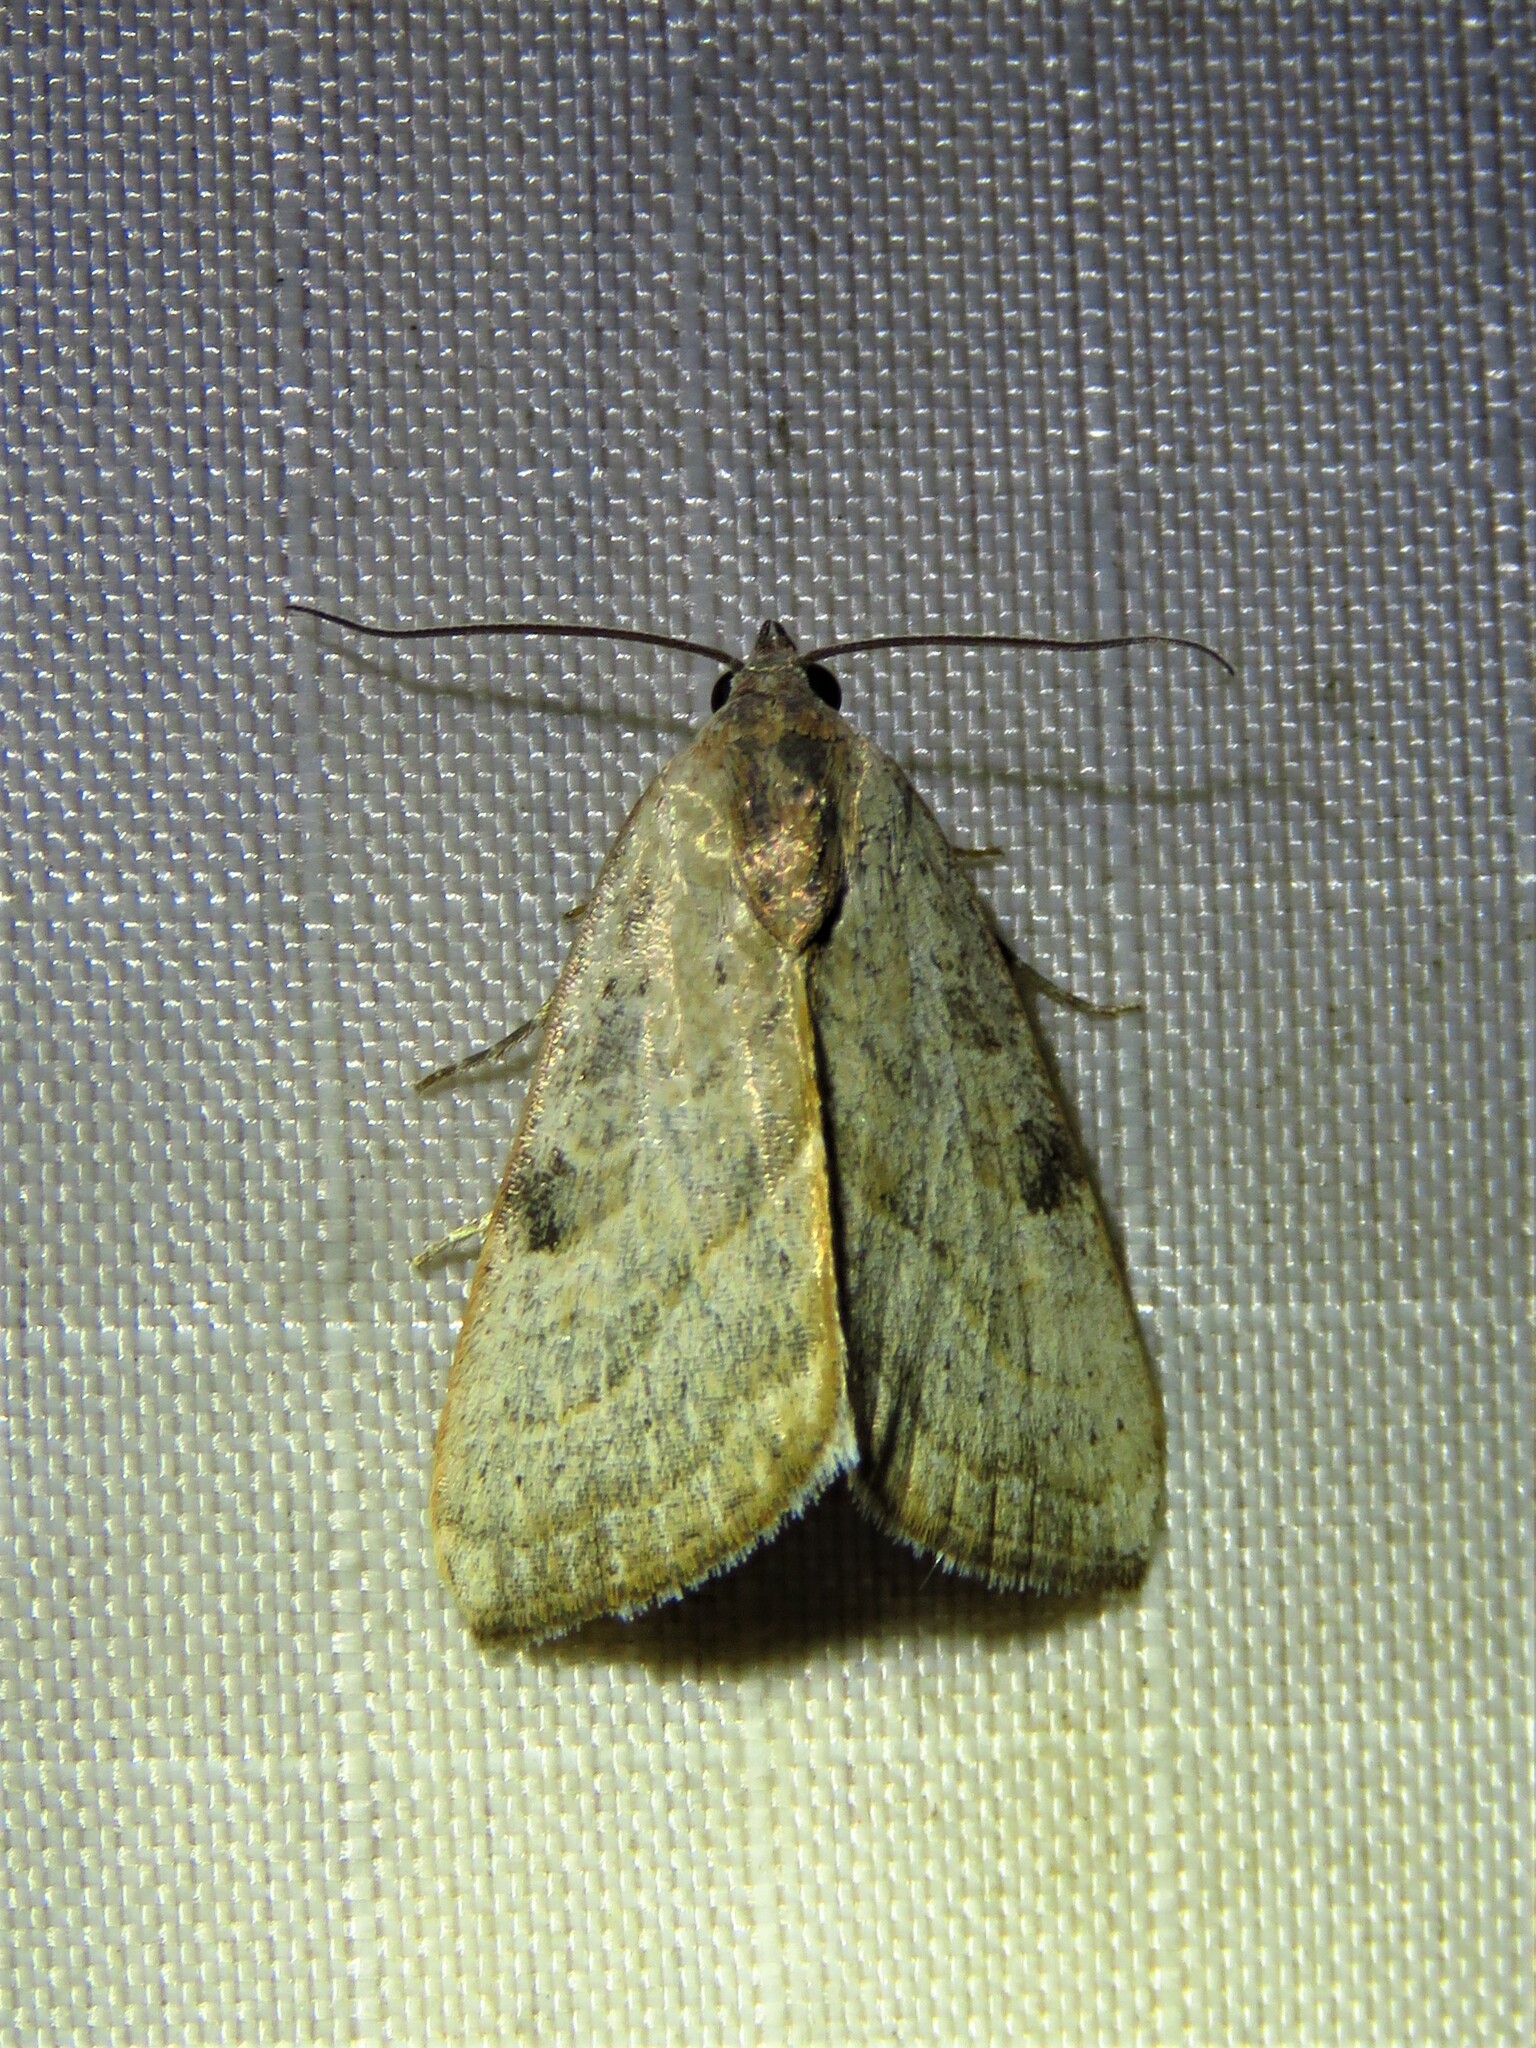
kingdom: Animalia
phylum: Arthropoda
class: Insecta
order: Lepidoptera
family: Noctuidae
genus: Galgula
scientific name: Galgula partita
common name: Wedgeling
